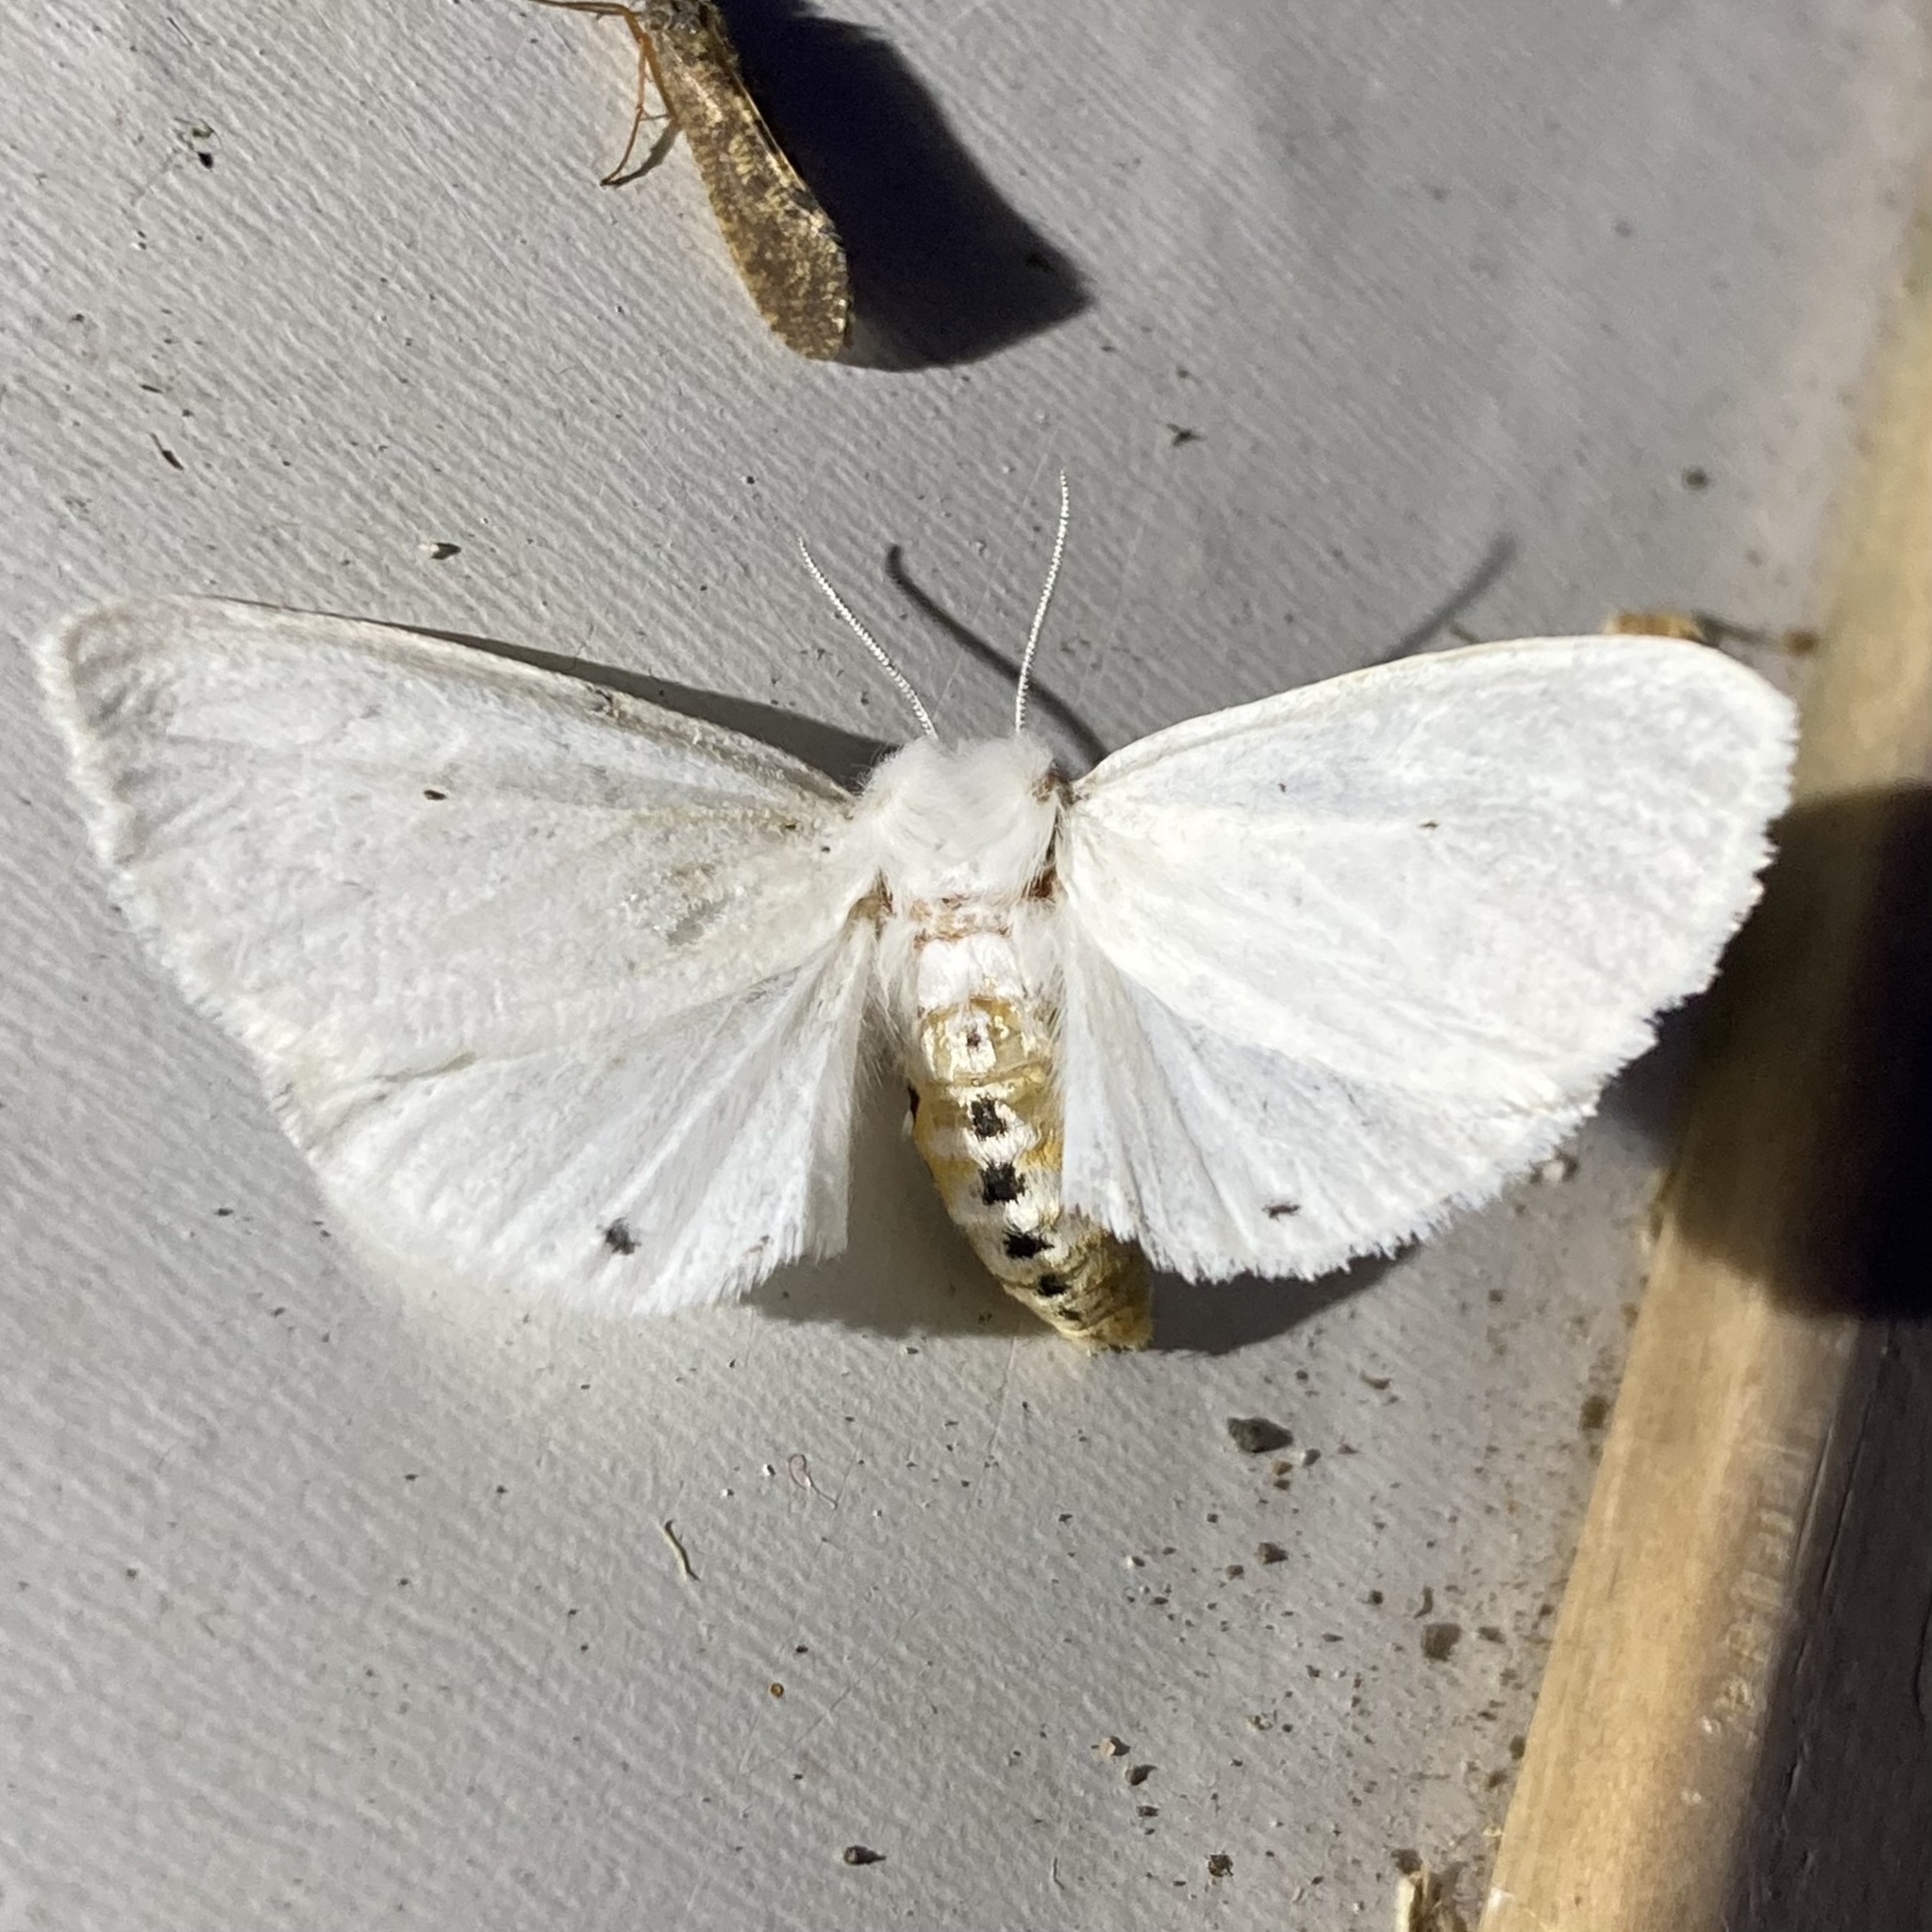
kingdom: Animalia
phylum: Arthropoda
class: Insecta
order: Lepidoptera
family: Erebidae
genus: Spilosoma
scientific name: Spilosoma virginica
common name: Virginia tiger moth
